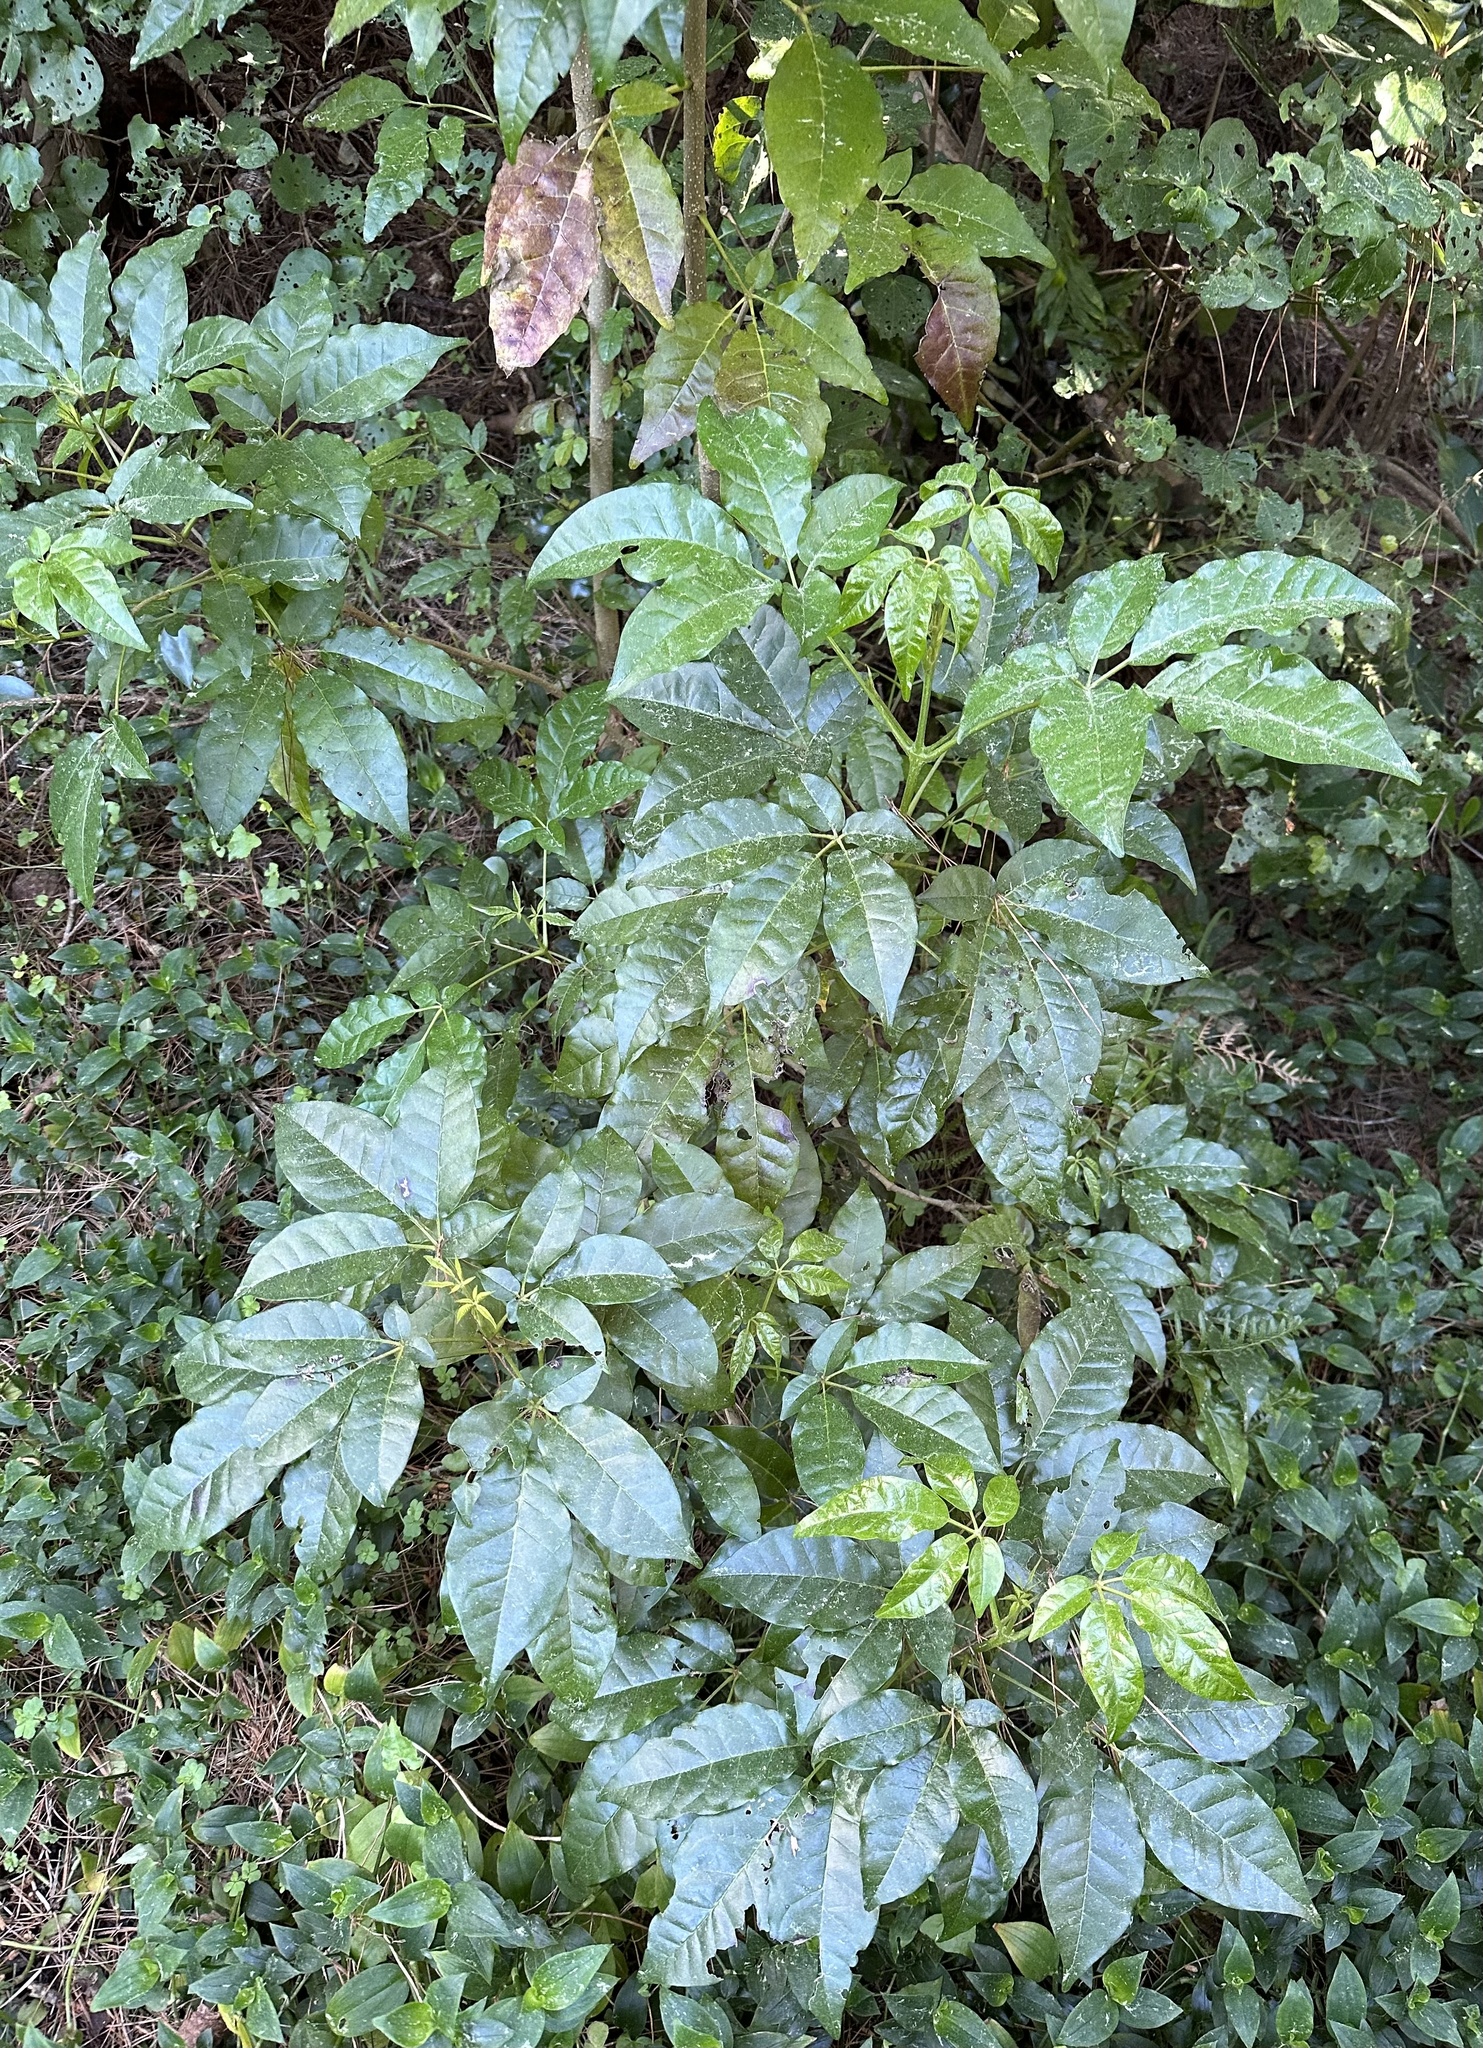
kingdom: Plantae
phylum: Tracheophyta
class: Magnoliopsida
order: Lamiales
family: Lamiaceae
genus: Vitex
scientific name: Vitex lucens
